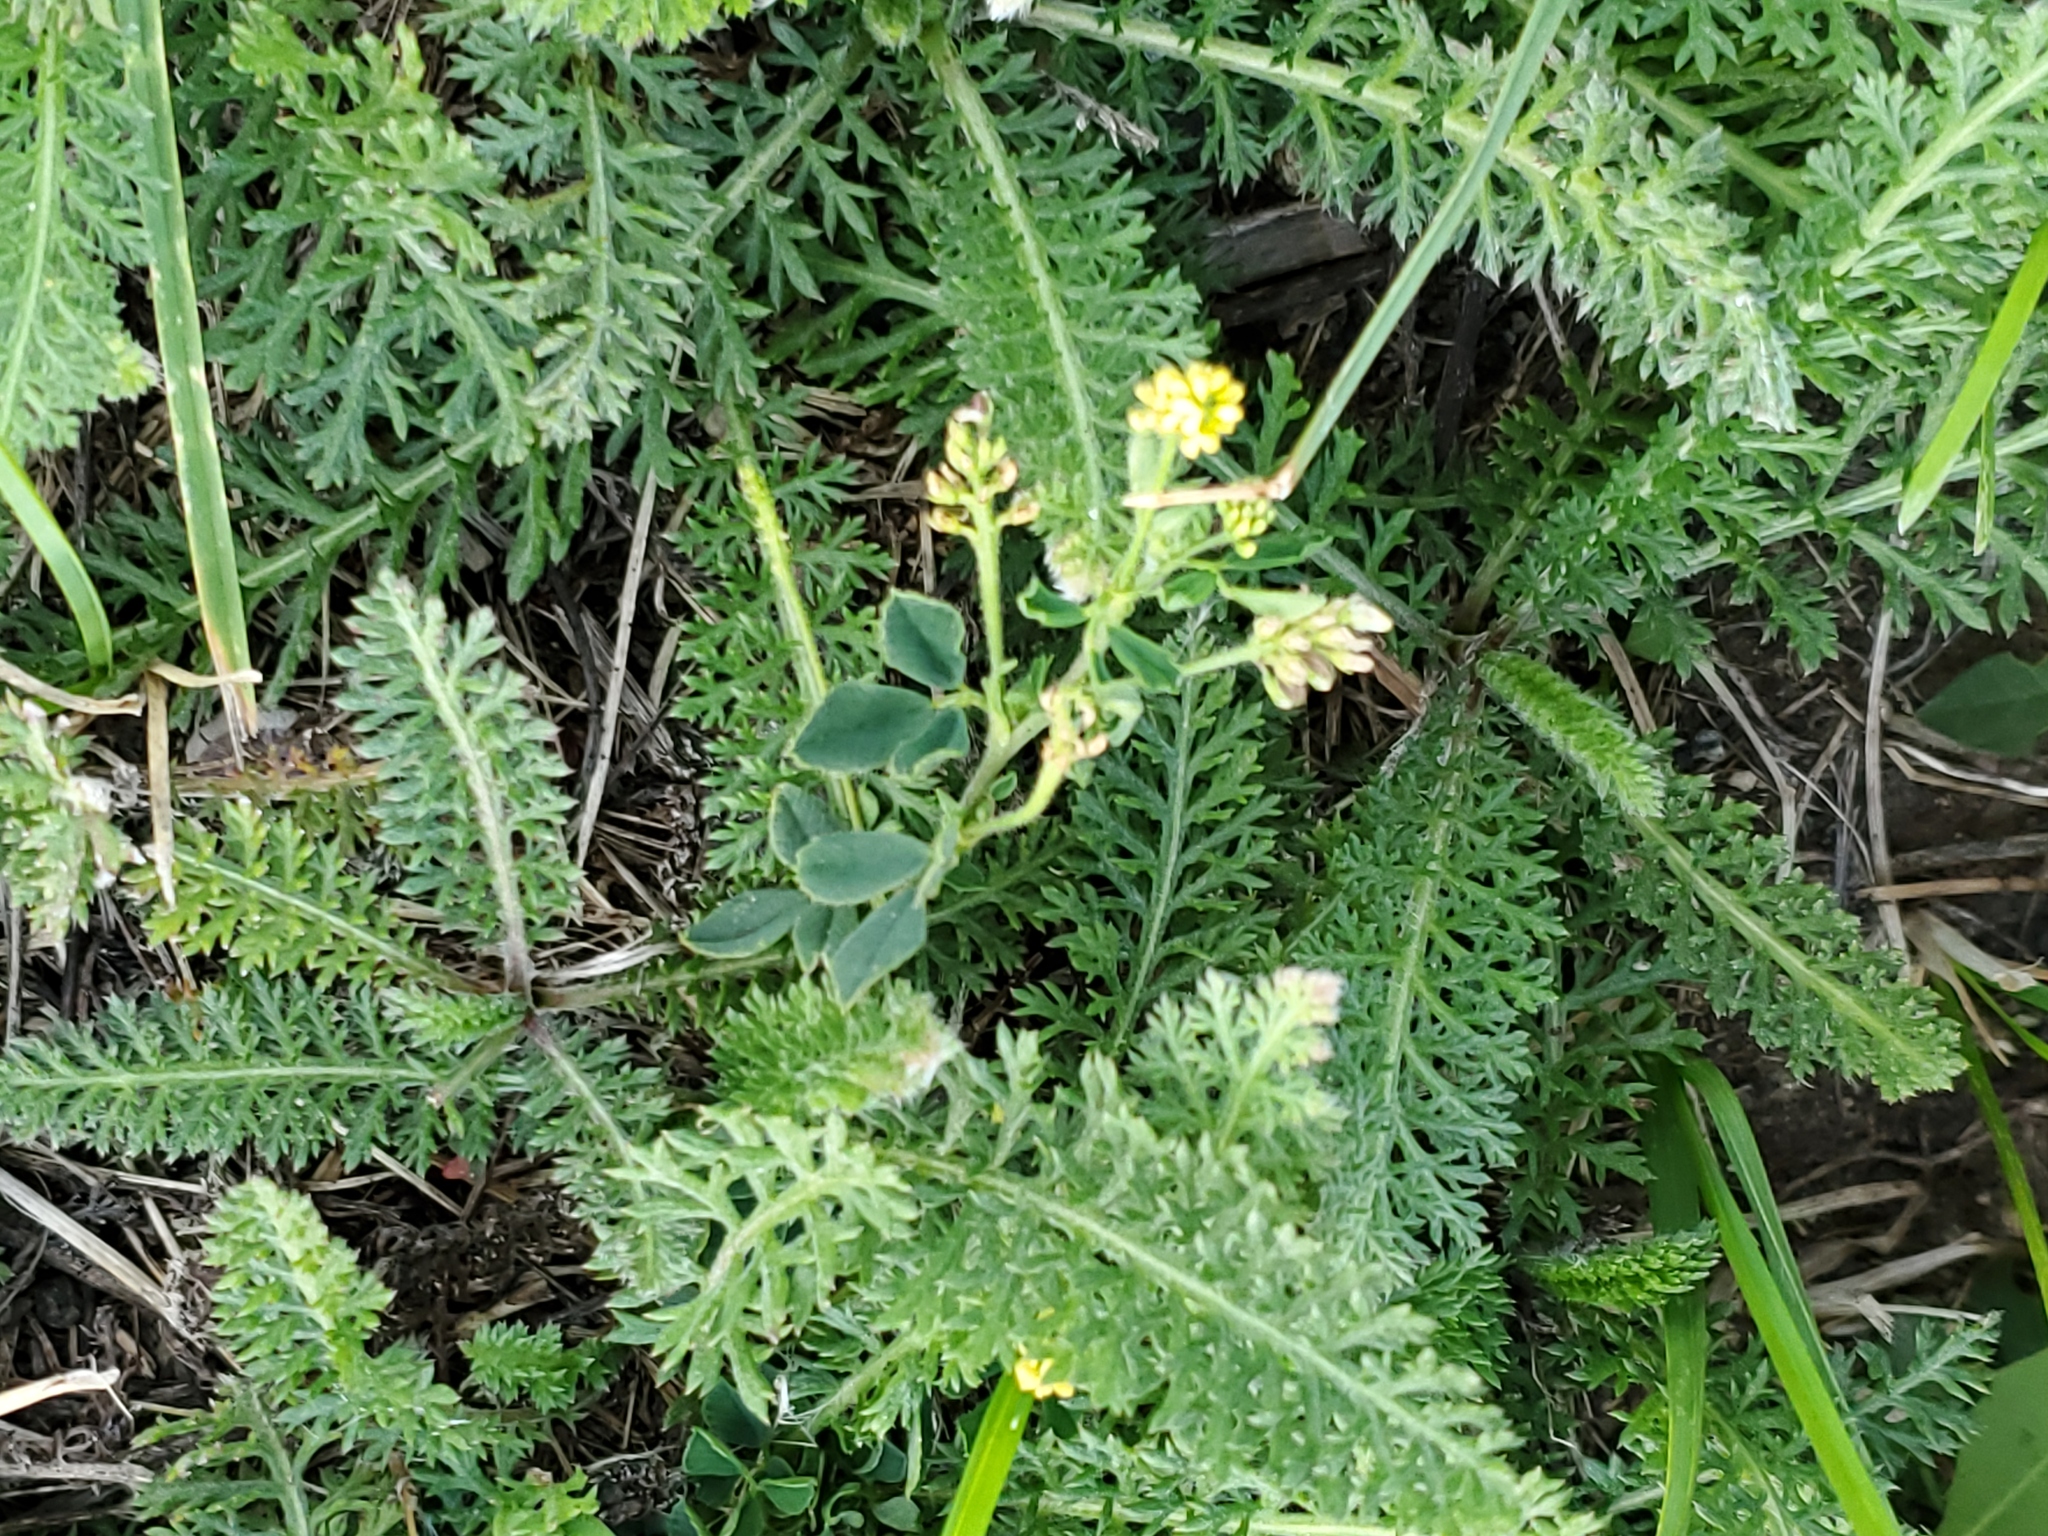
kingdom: Plantae
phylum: Tracheophyta
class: Magnoliopsida
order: Fabales
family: Fabaceae
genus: Medicago
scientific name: Medicago lupulina
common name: Black medick
